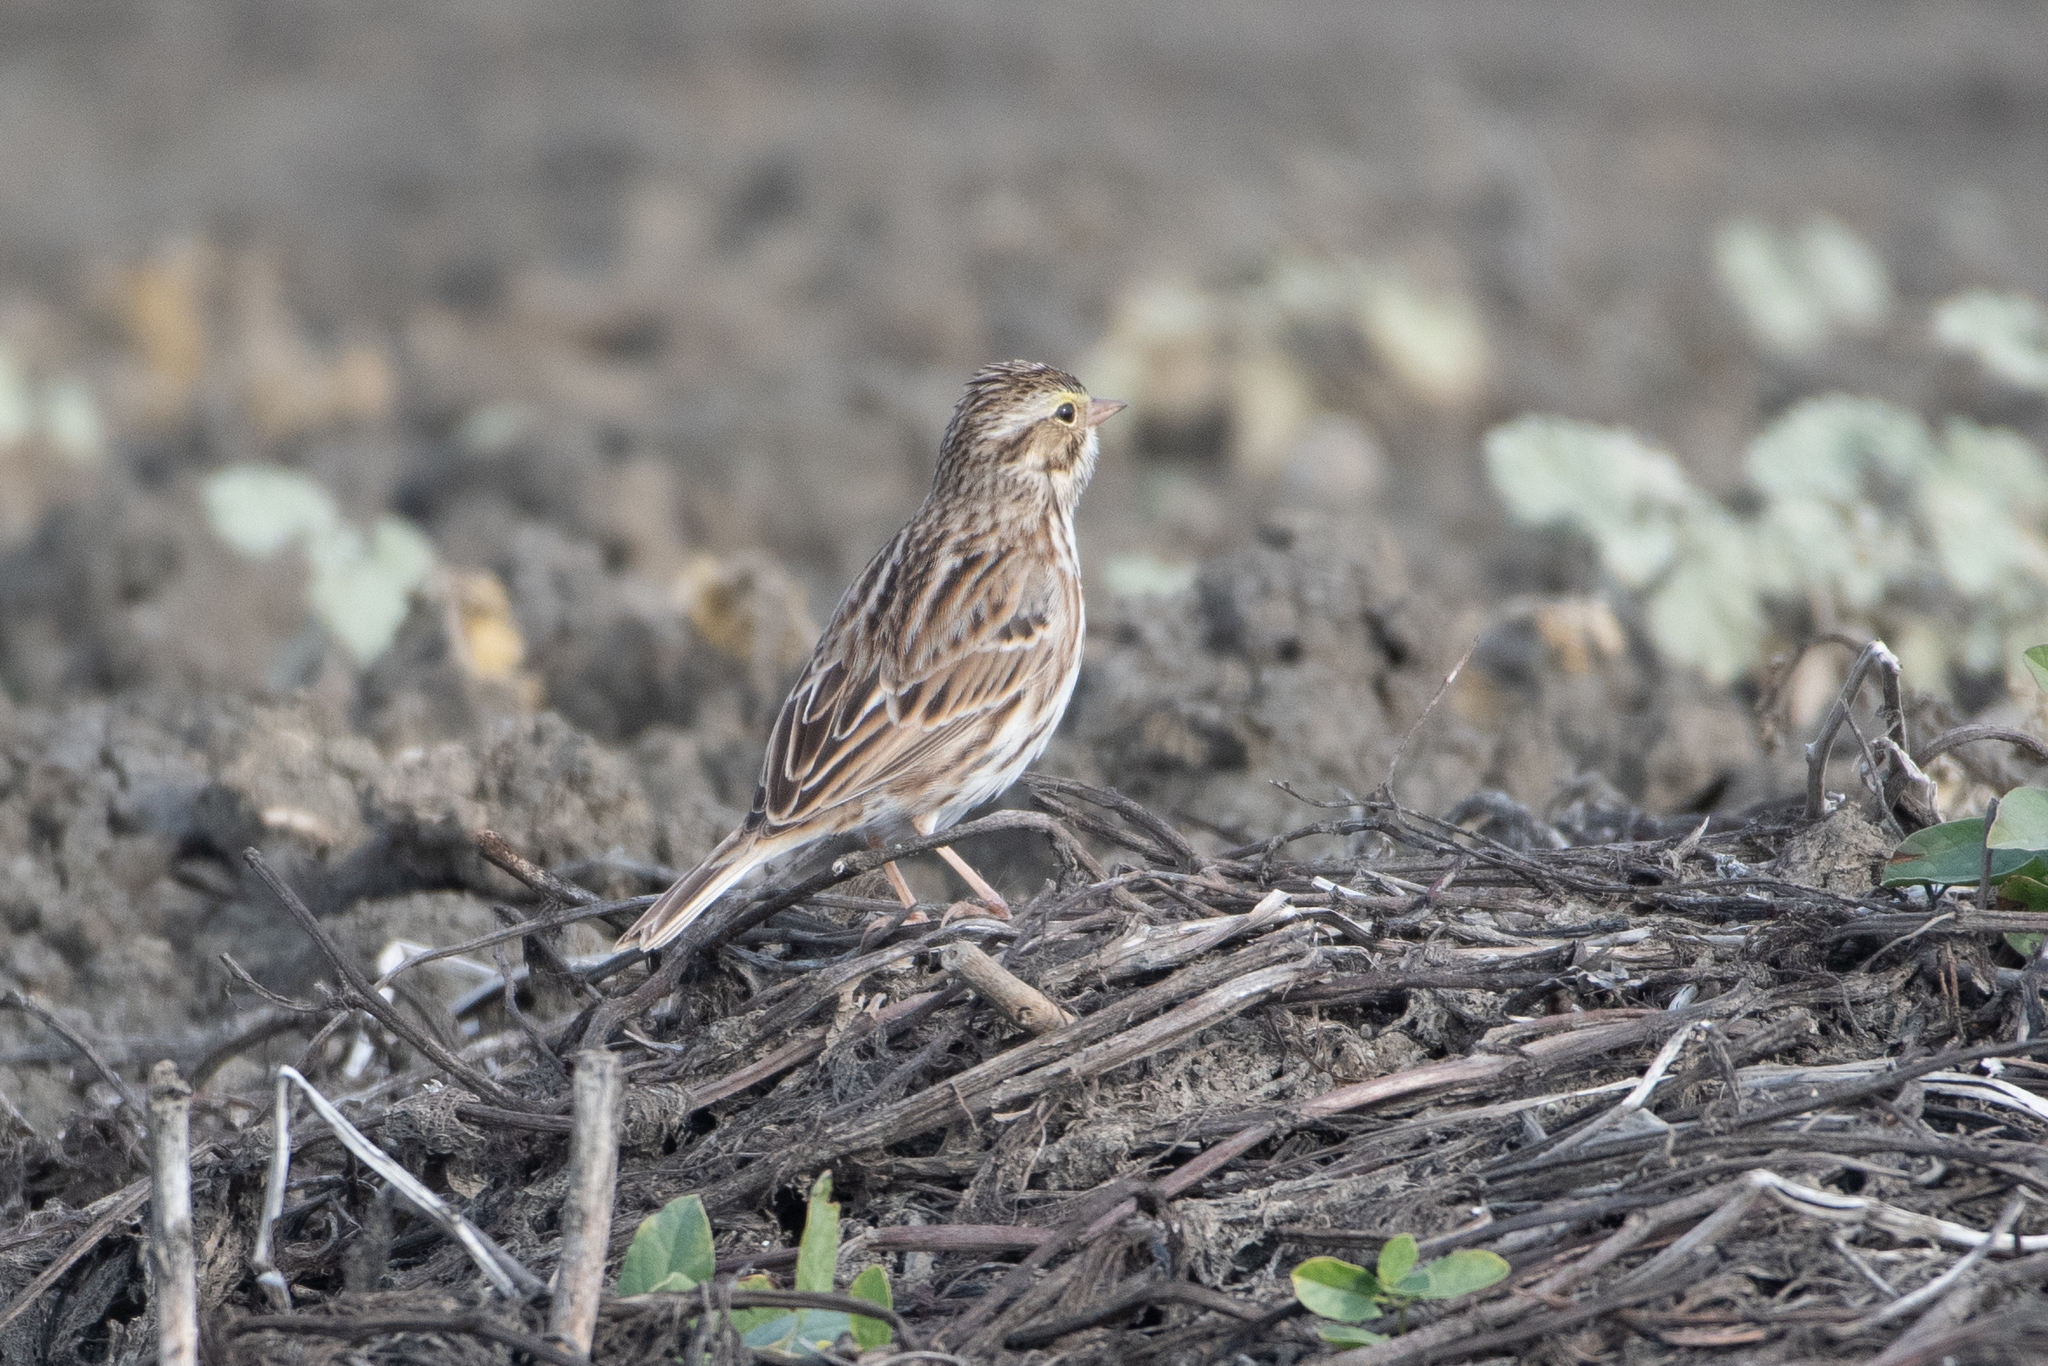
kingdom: Animalia
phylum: Chordata
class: Aves
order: Passeriformes
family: Passerellidae
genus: Passerculus
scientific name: Passerculus sandwichensis
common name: Savannah sparrow
